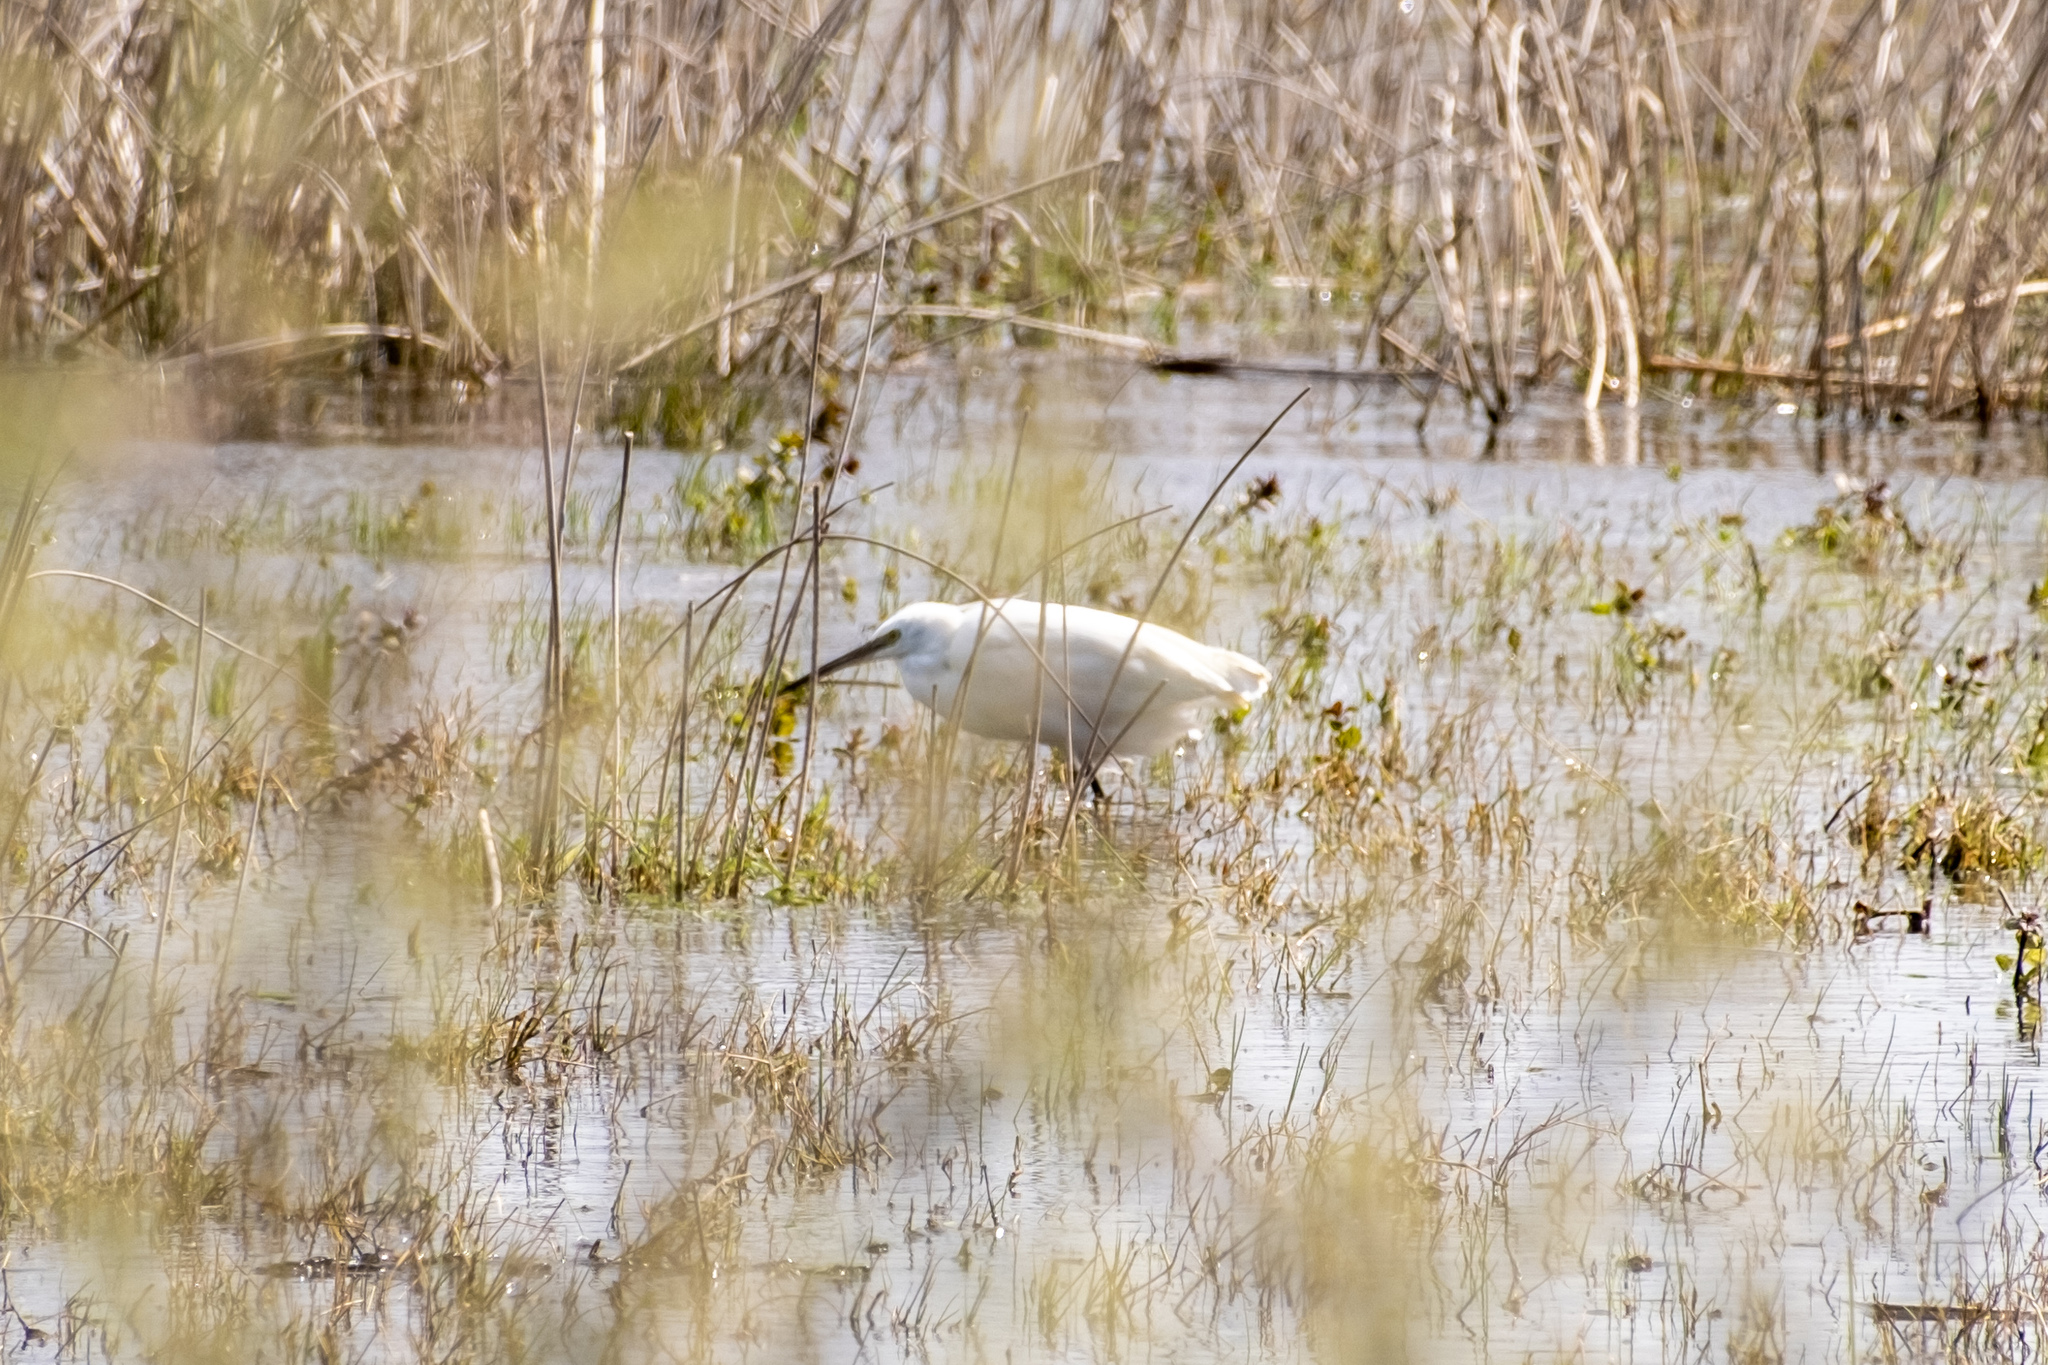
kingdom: Animalia
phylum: Chordata
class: Aves
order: Pelecaniformes
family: Ardeidae
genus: Egretta
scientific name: Egretta garzetta
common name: Little egret
